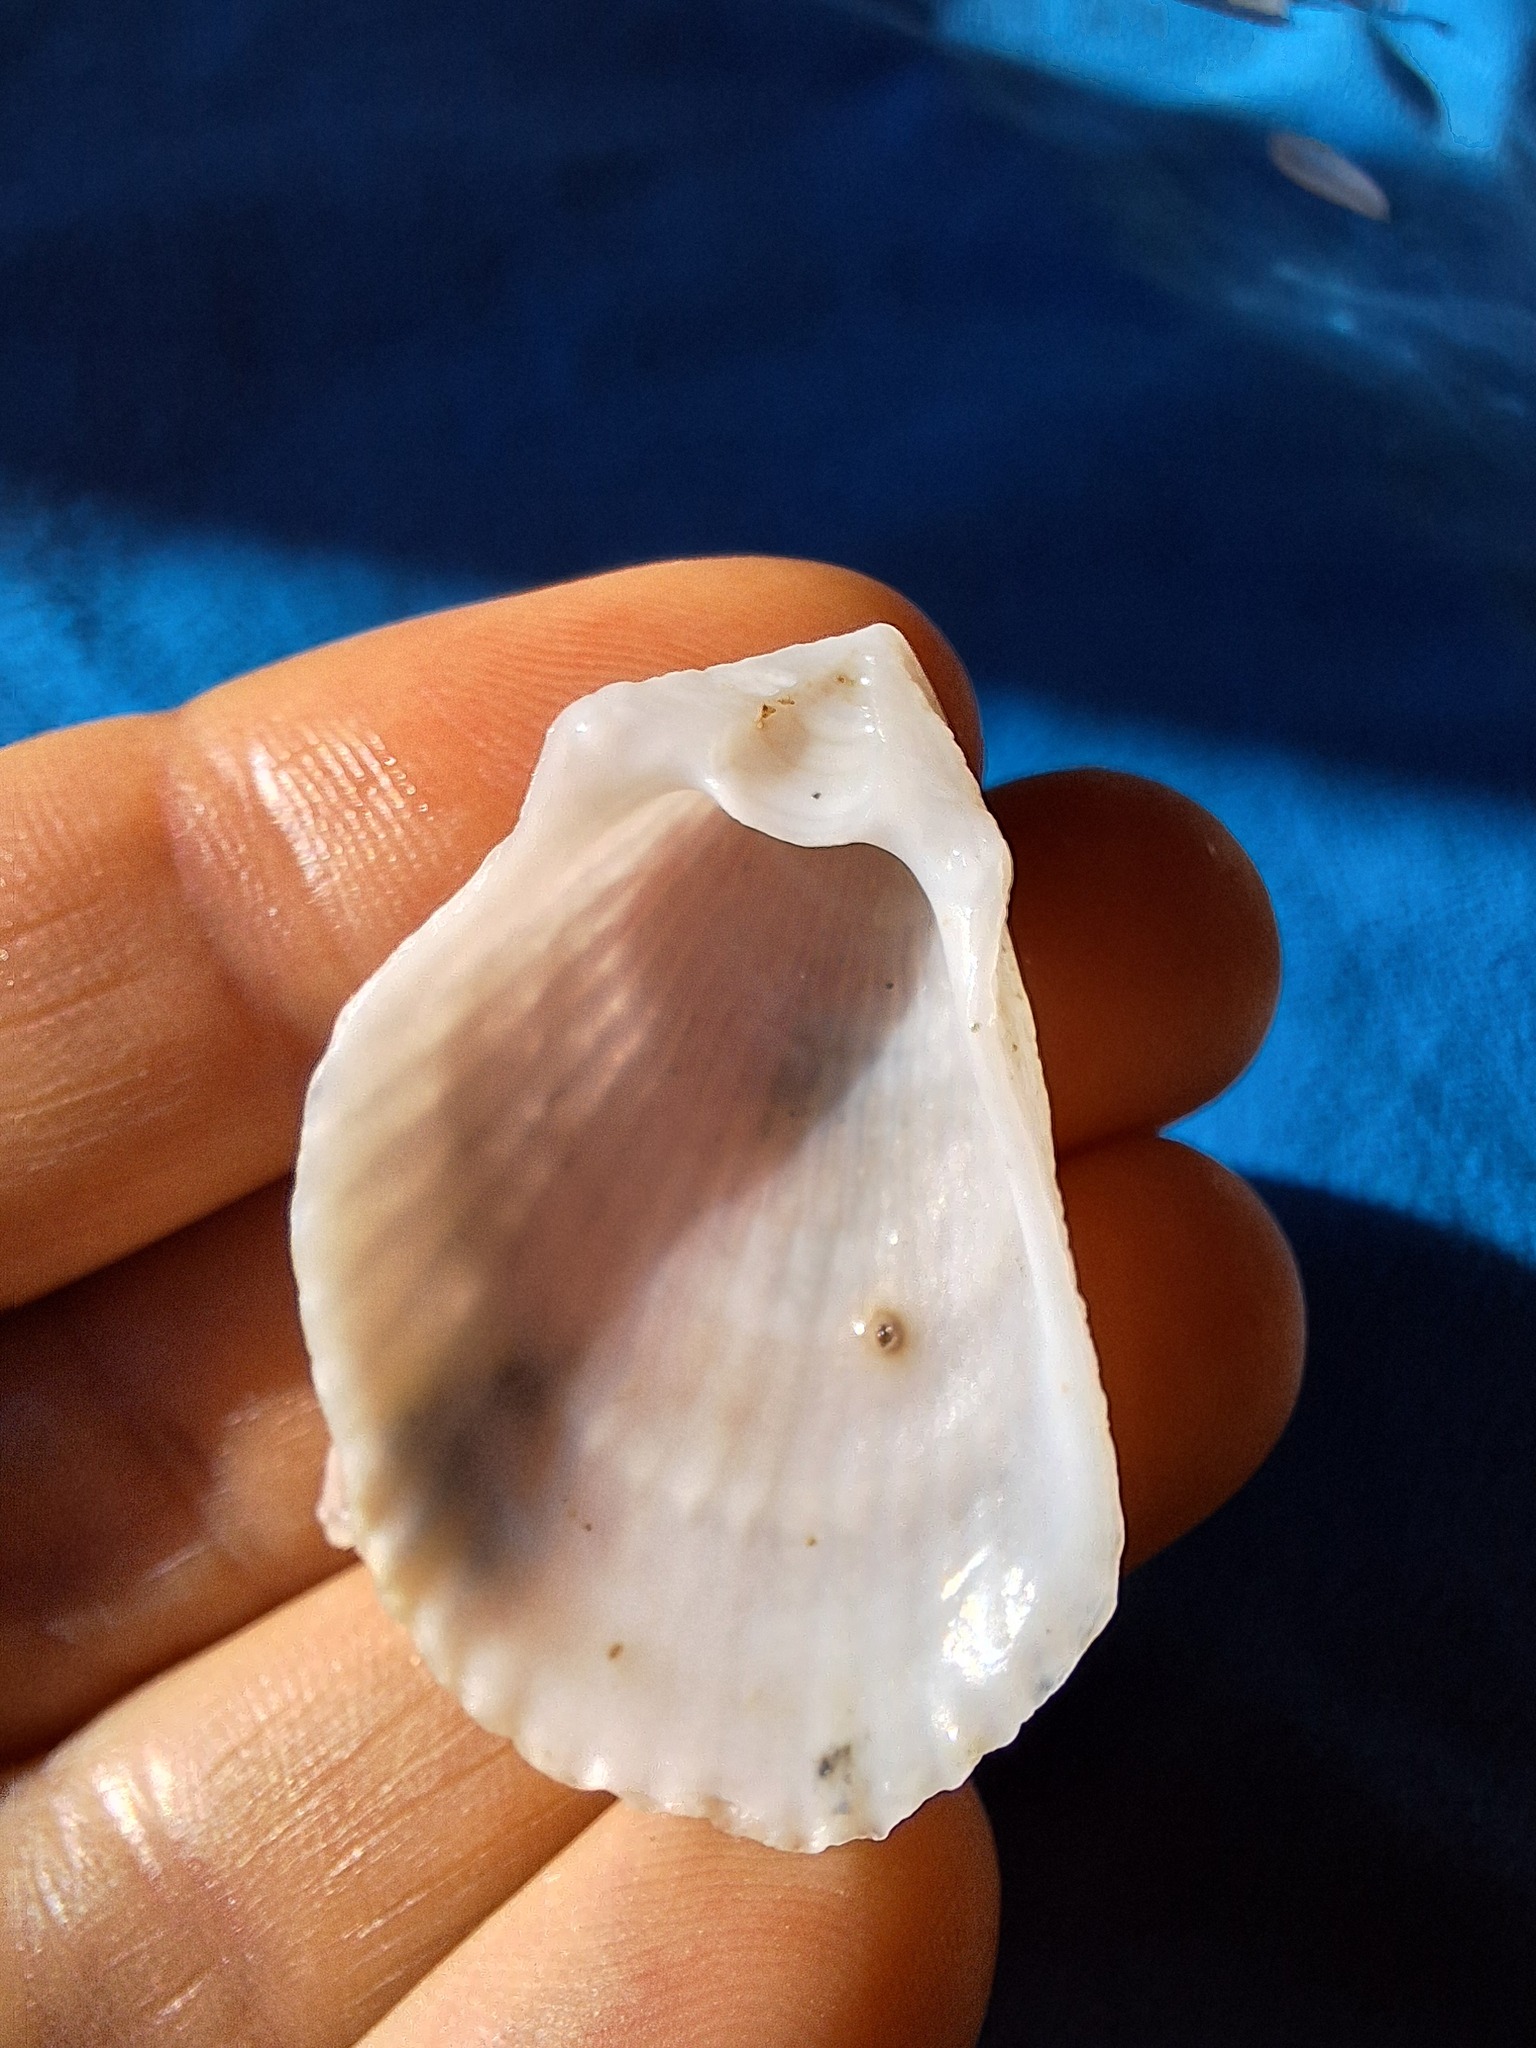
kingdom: Animalia
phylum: Mollusca
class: Bivalvia
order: Limida
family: Limidae
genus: Lima
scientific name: Lima lima
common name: Frilled file shell
